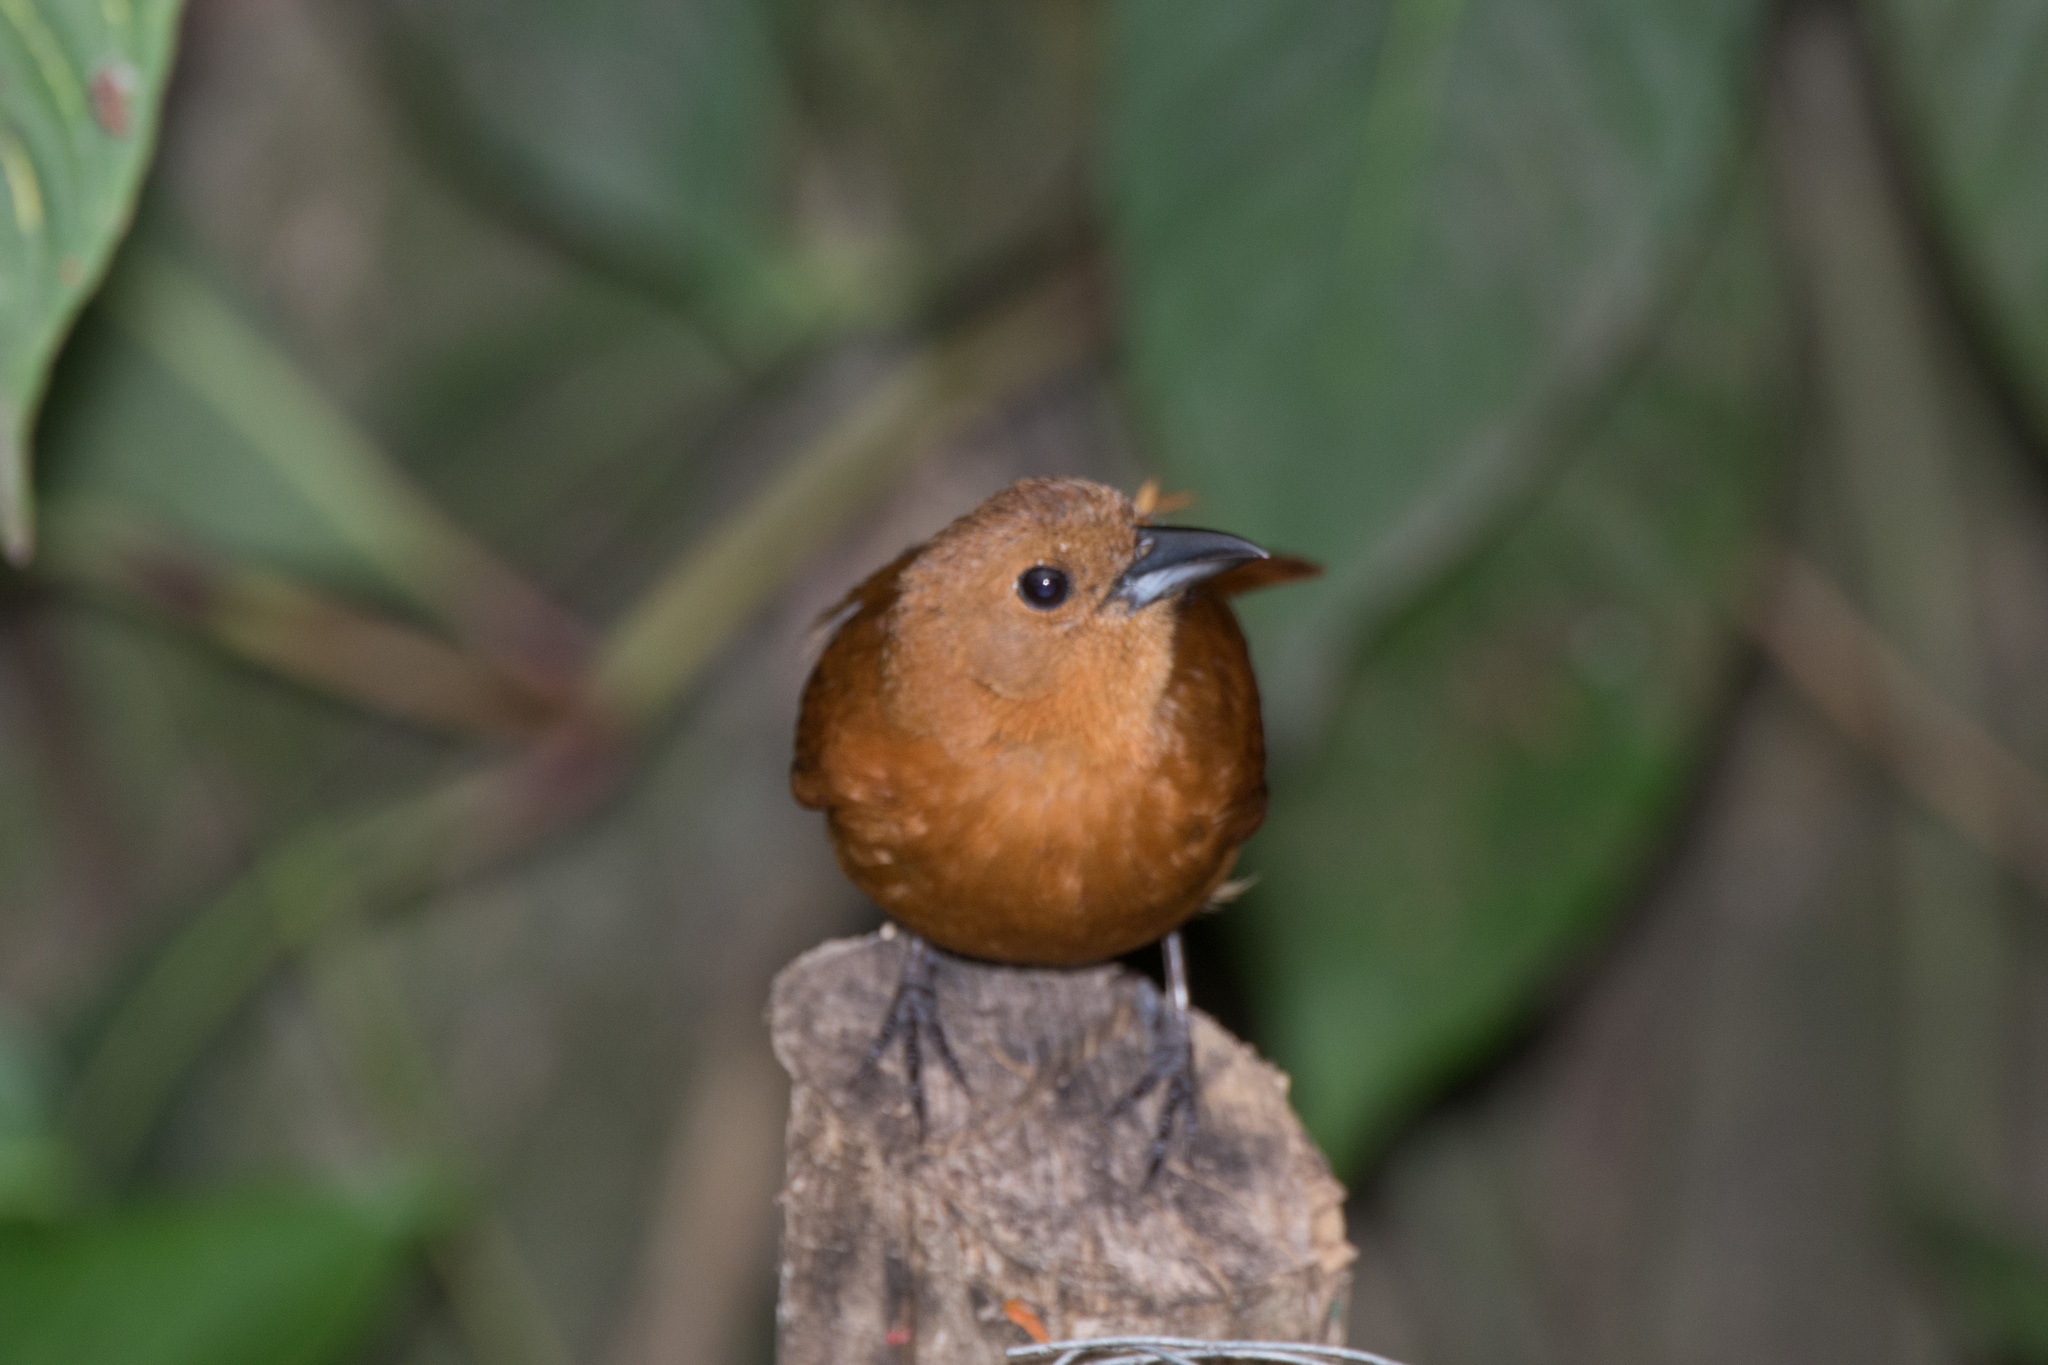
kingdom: Animalia
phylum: Chordata
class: Aves
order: Passeriformes
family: Thraupidae
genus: Tachyphonus
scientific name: Tachyphonus rufus
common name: White-lined tanager
